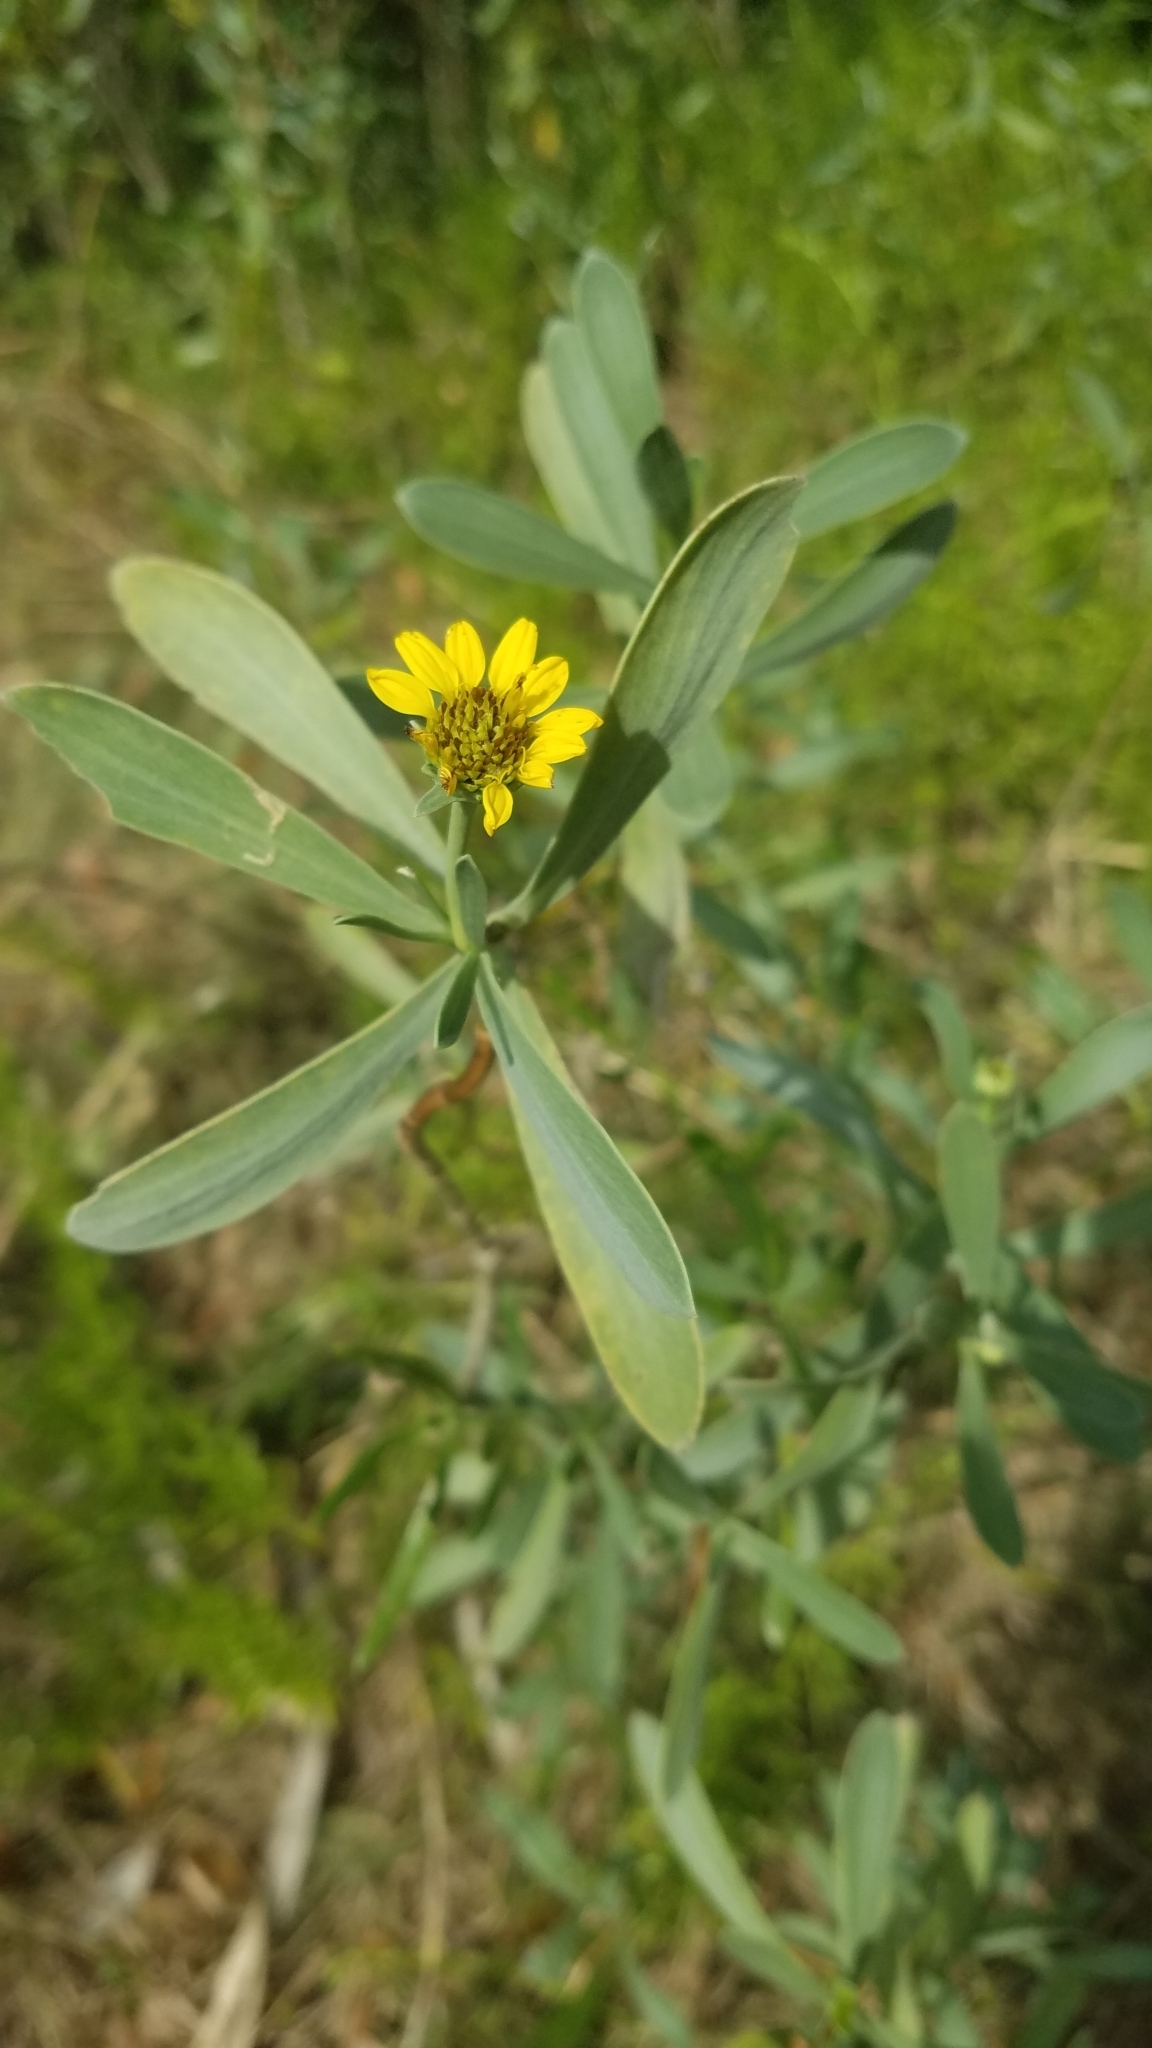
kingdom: Plantae
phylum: Tracheophyta
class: Magnoliopsida
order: Asterales
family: Asteraceae
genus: Borrichia
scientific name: Borrichia frutescens
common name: Sea oxeye
